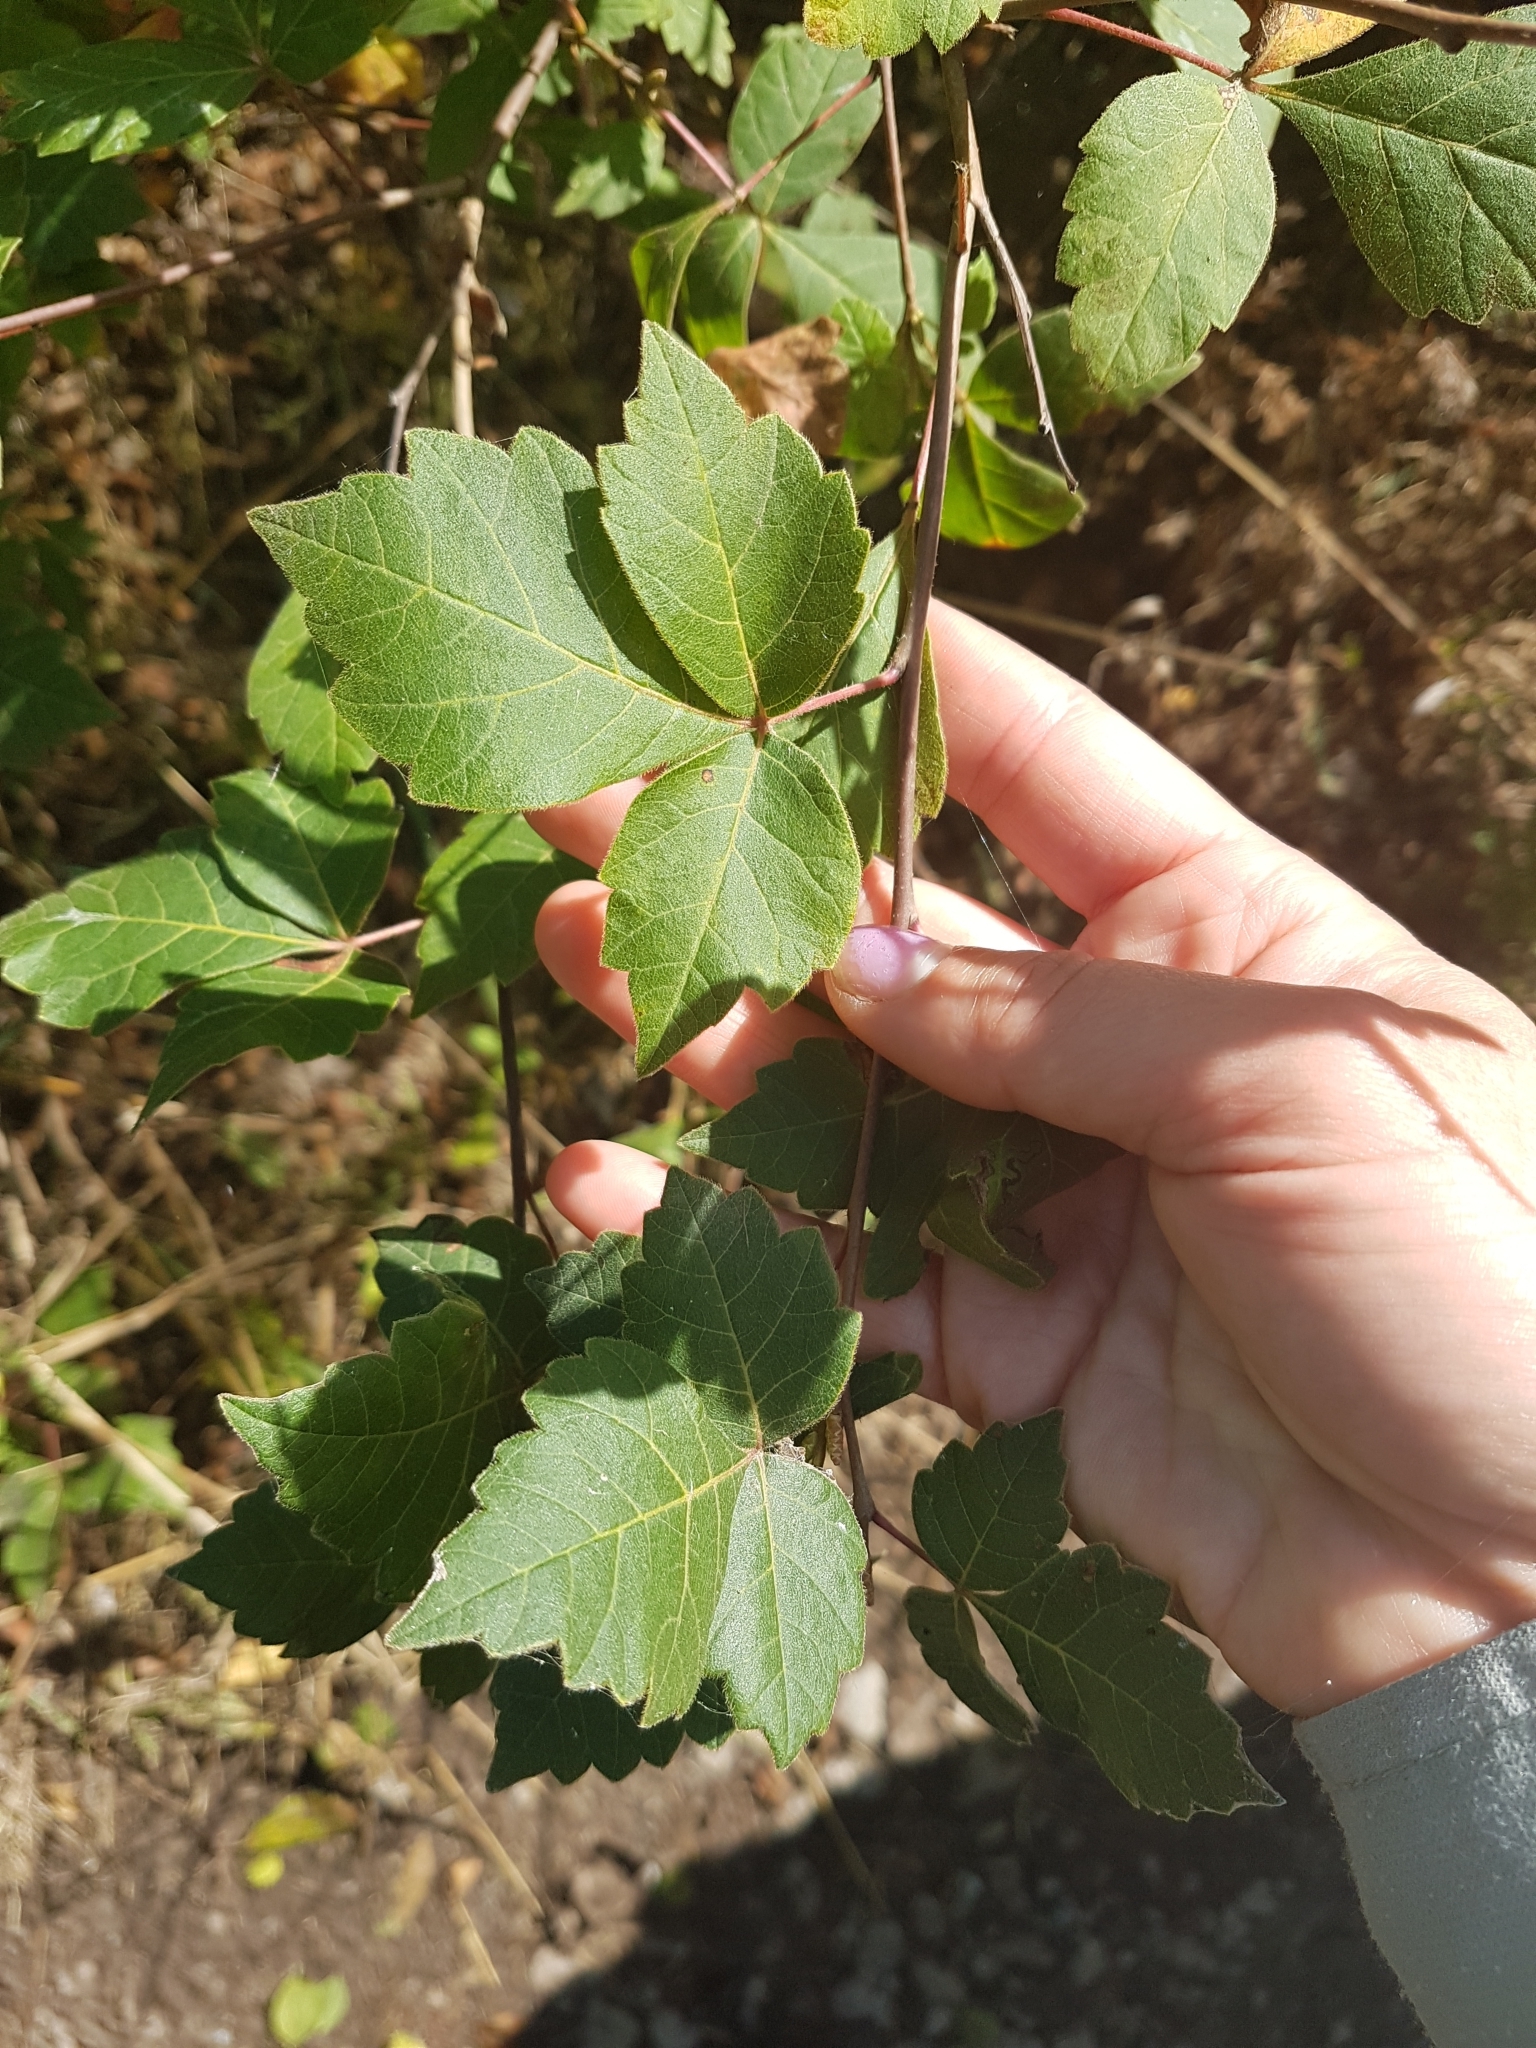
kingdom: Plantae
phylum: Tracheophyta
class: Magnoliopsida
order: Sapindales
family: Anacardiaceae
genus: Rhus
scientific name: Rhus aromatica
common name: Aromatic sumac
